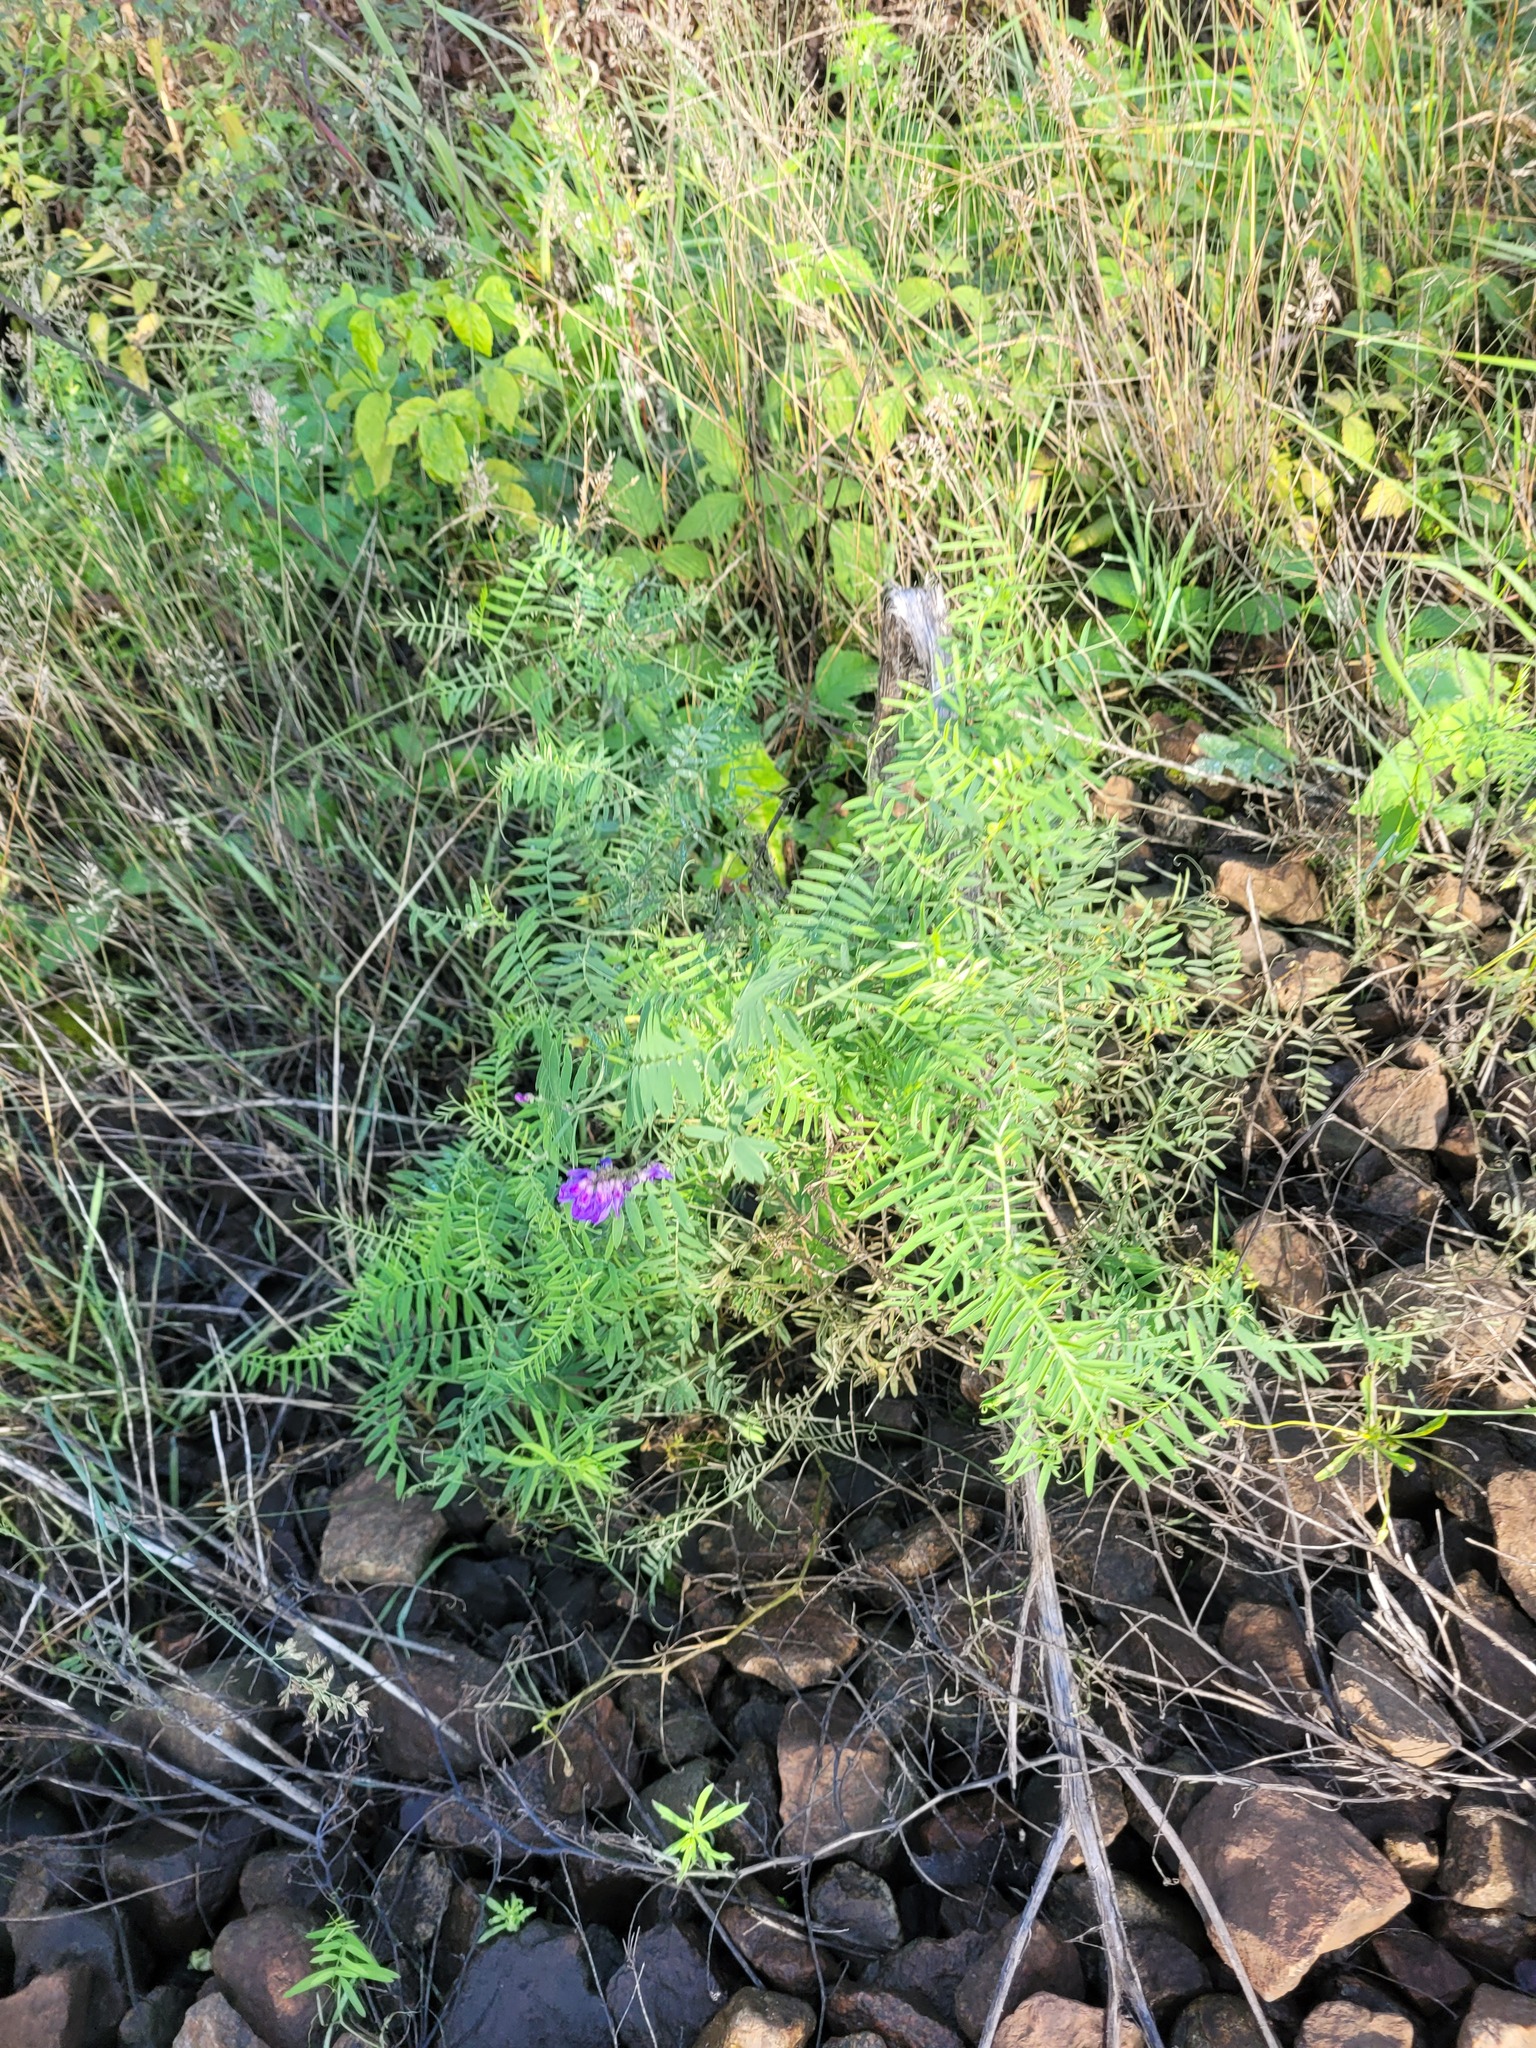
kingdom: Plantae
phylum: Tracheophyta
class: Magnoliopsida
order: Fabales
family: Fabaceae
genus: Vicia
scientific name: Vicia cracca
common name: Bird vetch
